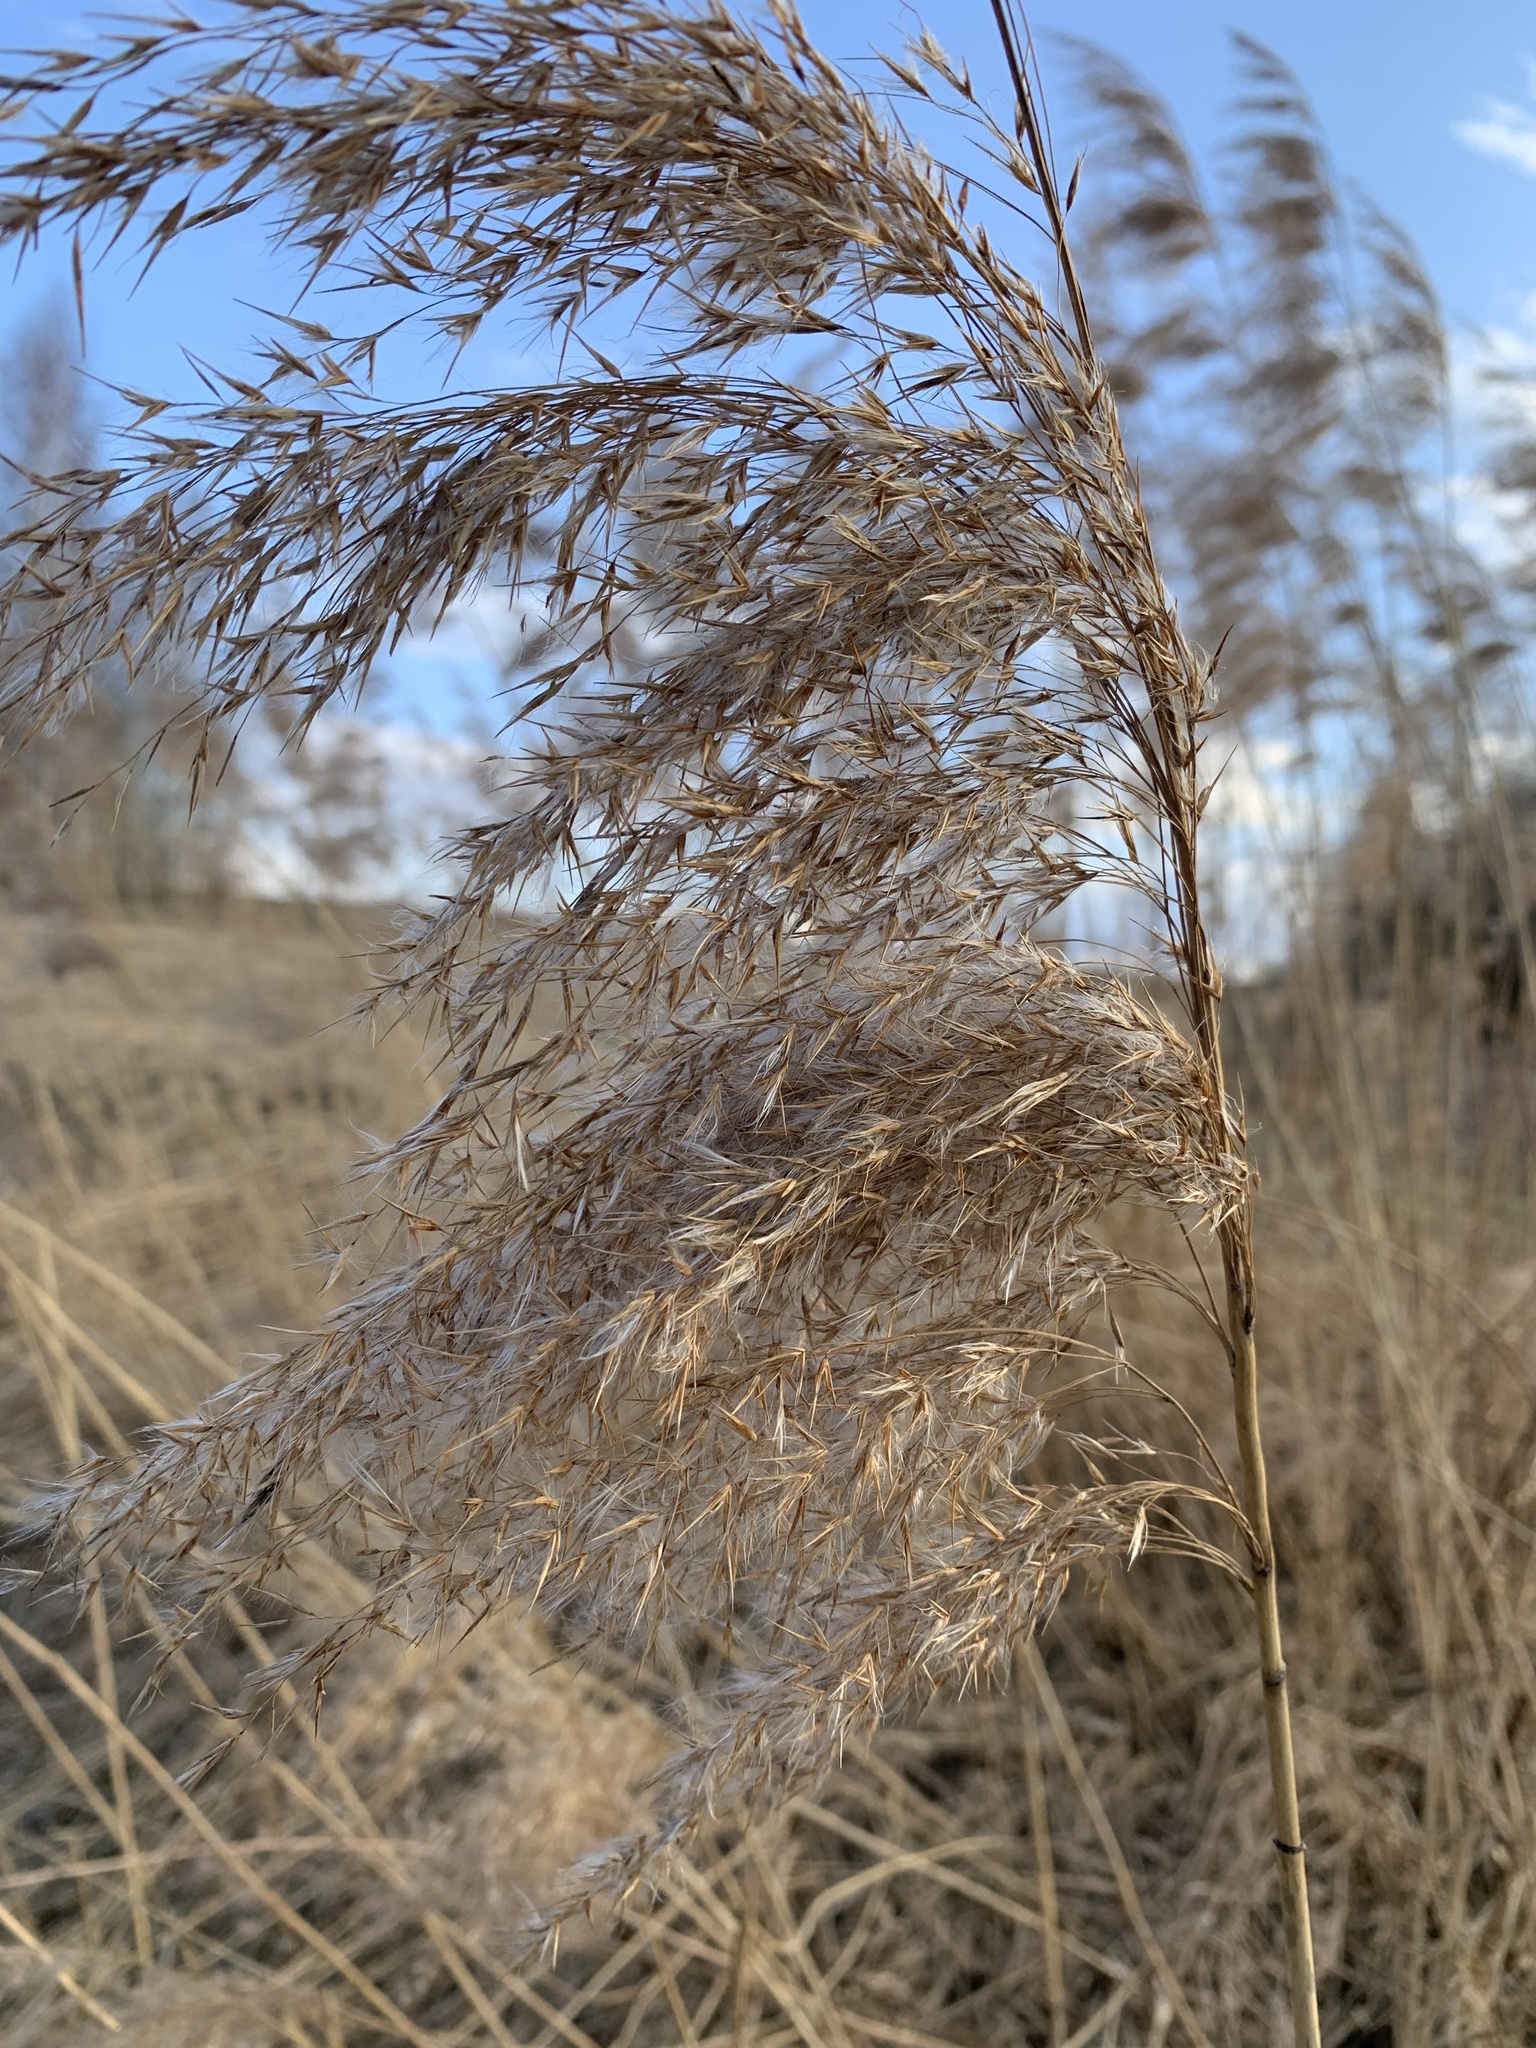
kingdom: Plantae
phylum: Tracheophyta
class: Liliopsida
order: Poales
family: Poaceae
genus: Phragmites
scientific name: Phragmites australis
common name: Common reed
